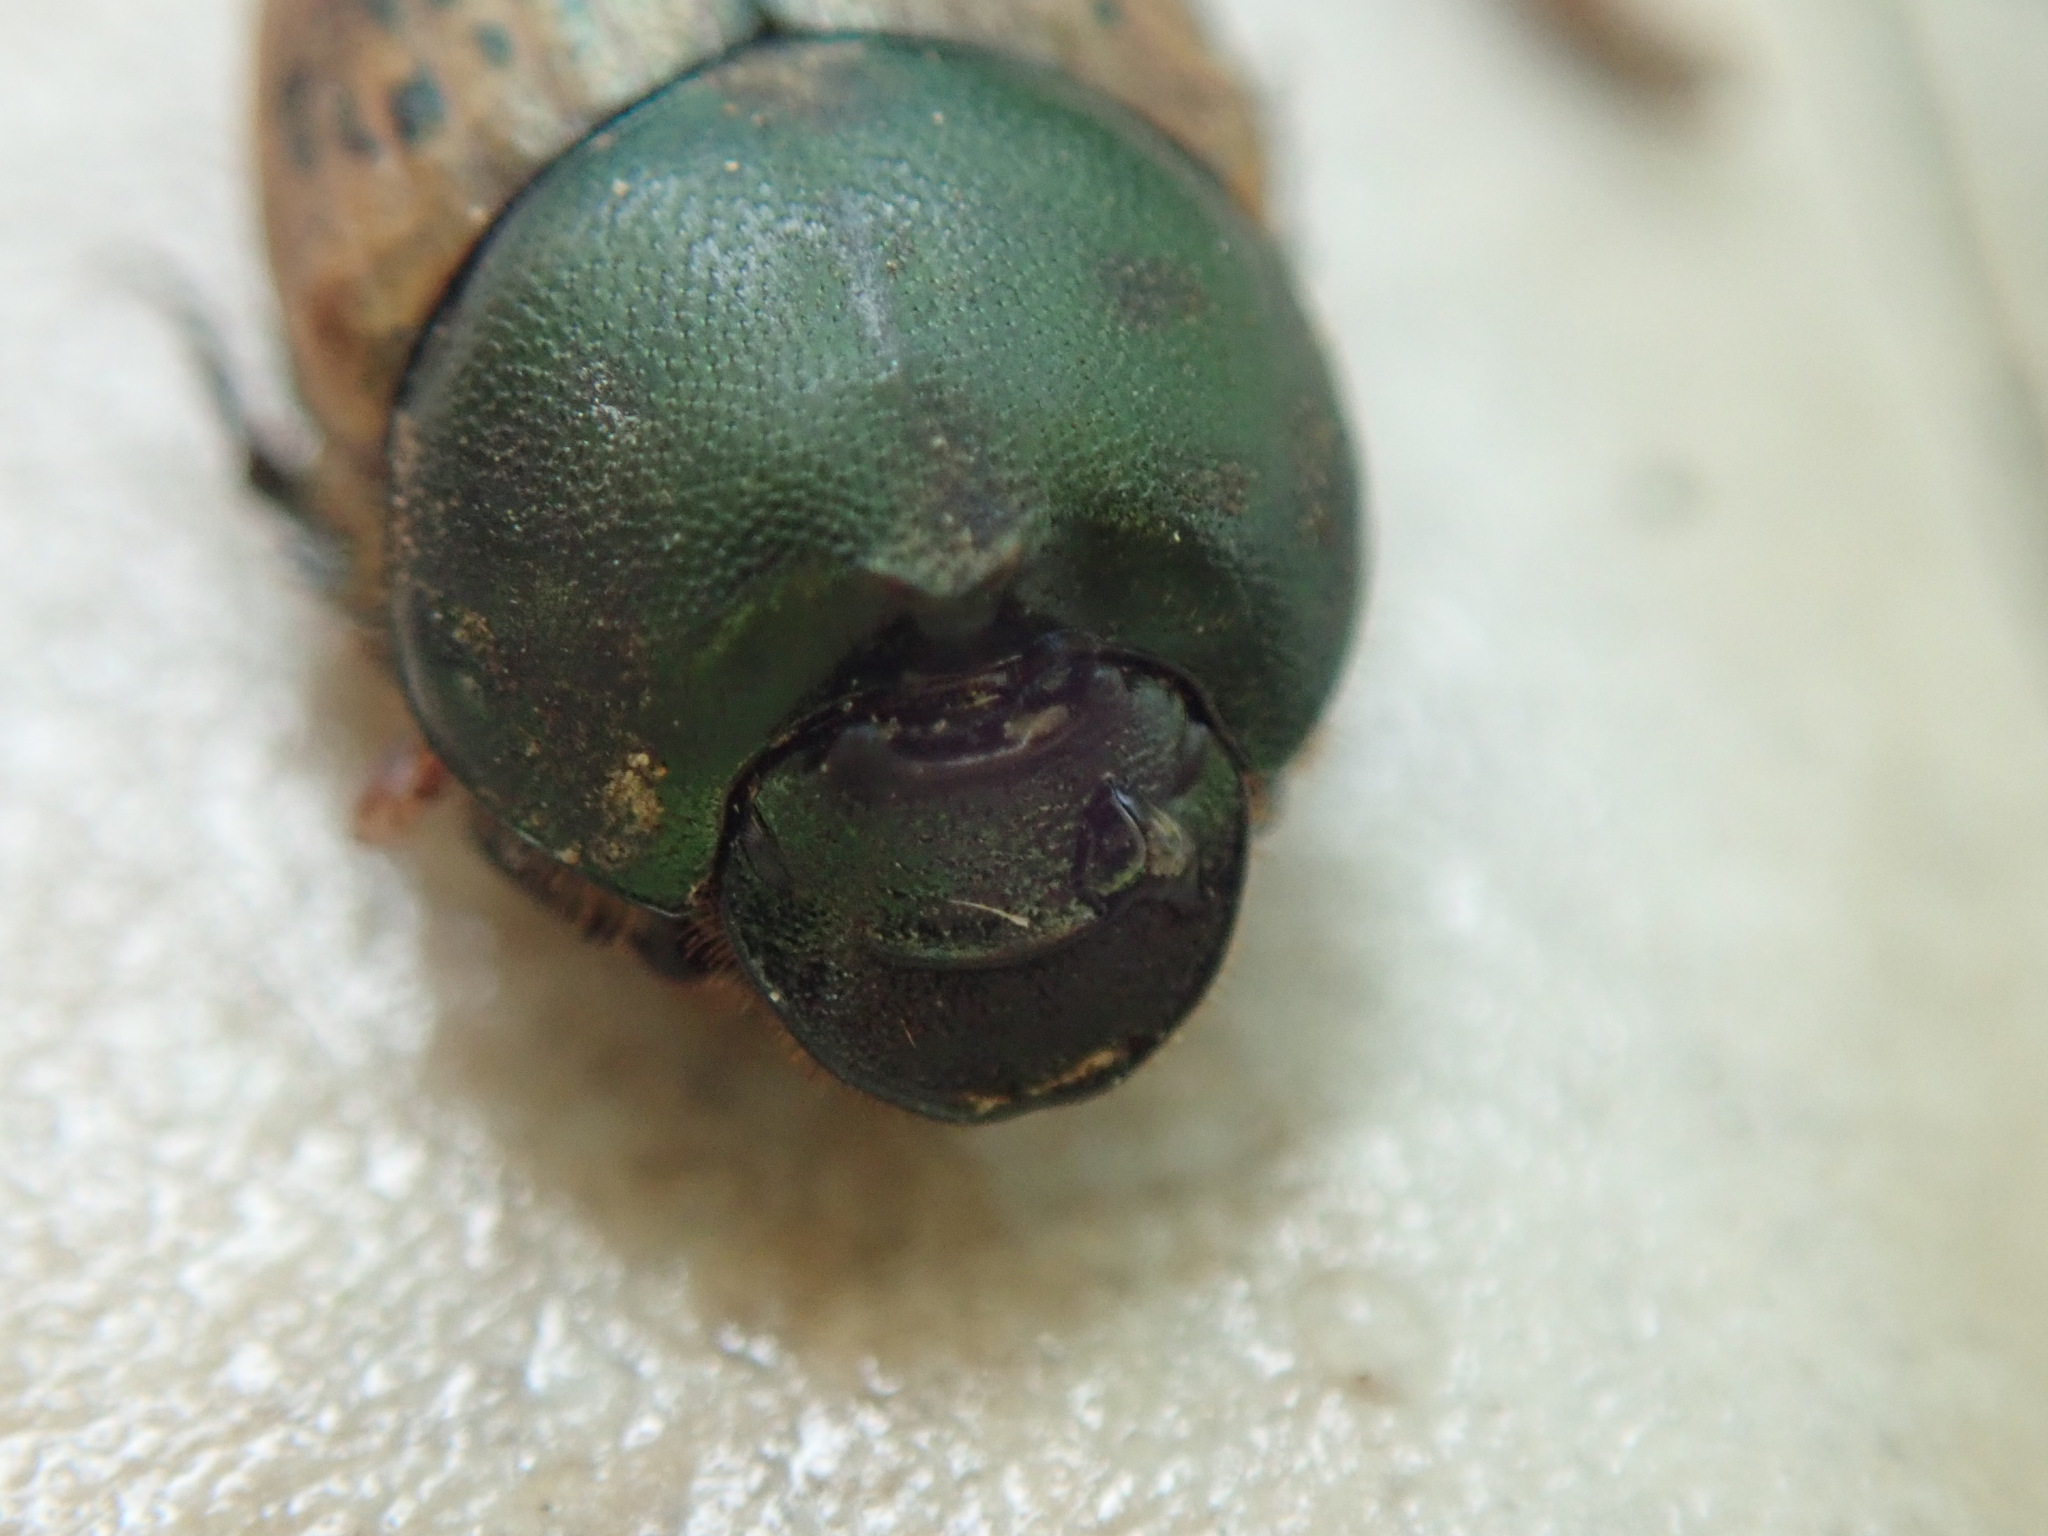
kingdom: Animalia
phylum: Arthropoda
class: Insecta
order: Coleoptera
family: Scarabaeidae
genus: Onthophagus
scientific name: Onthophagus vacca
